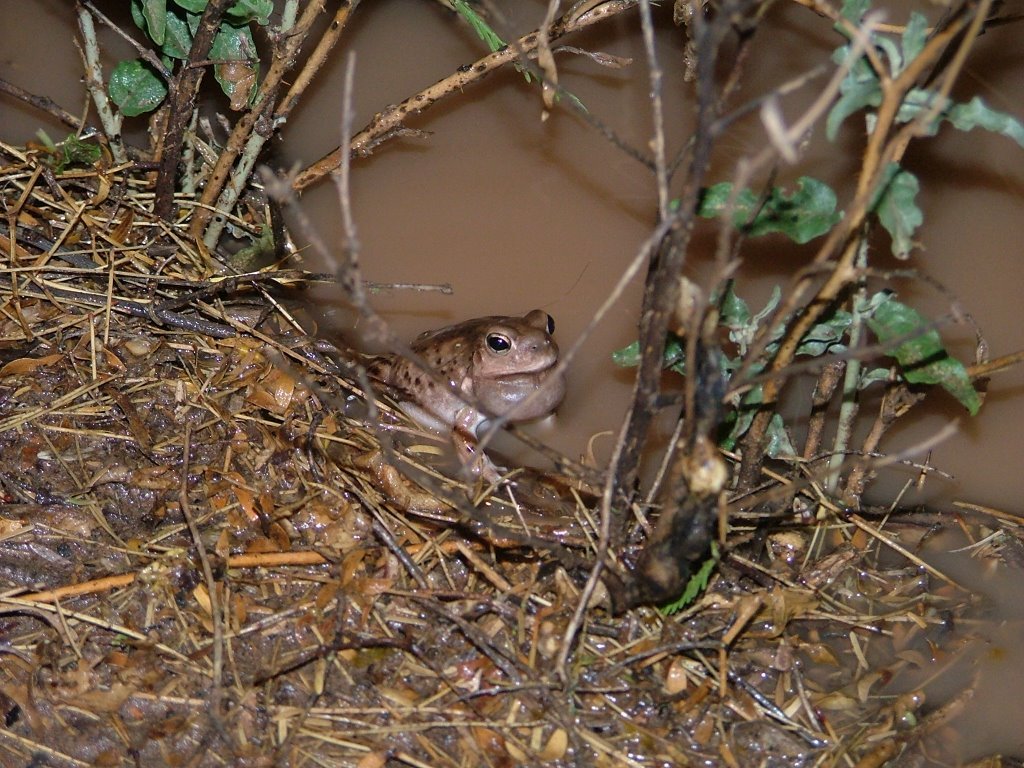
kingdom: Animalia
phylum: Chordata
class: Amphibia
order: Anura
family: Leptodactylidae
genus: Pleurodema
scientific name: Pleurodema nebulosum
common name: Mendoza four-eyed frog
